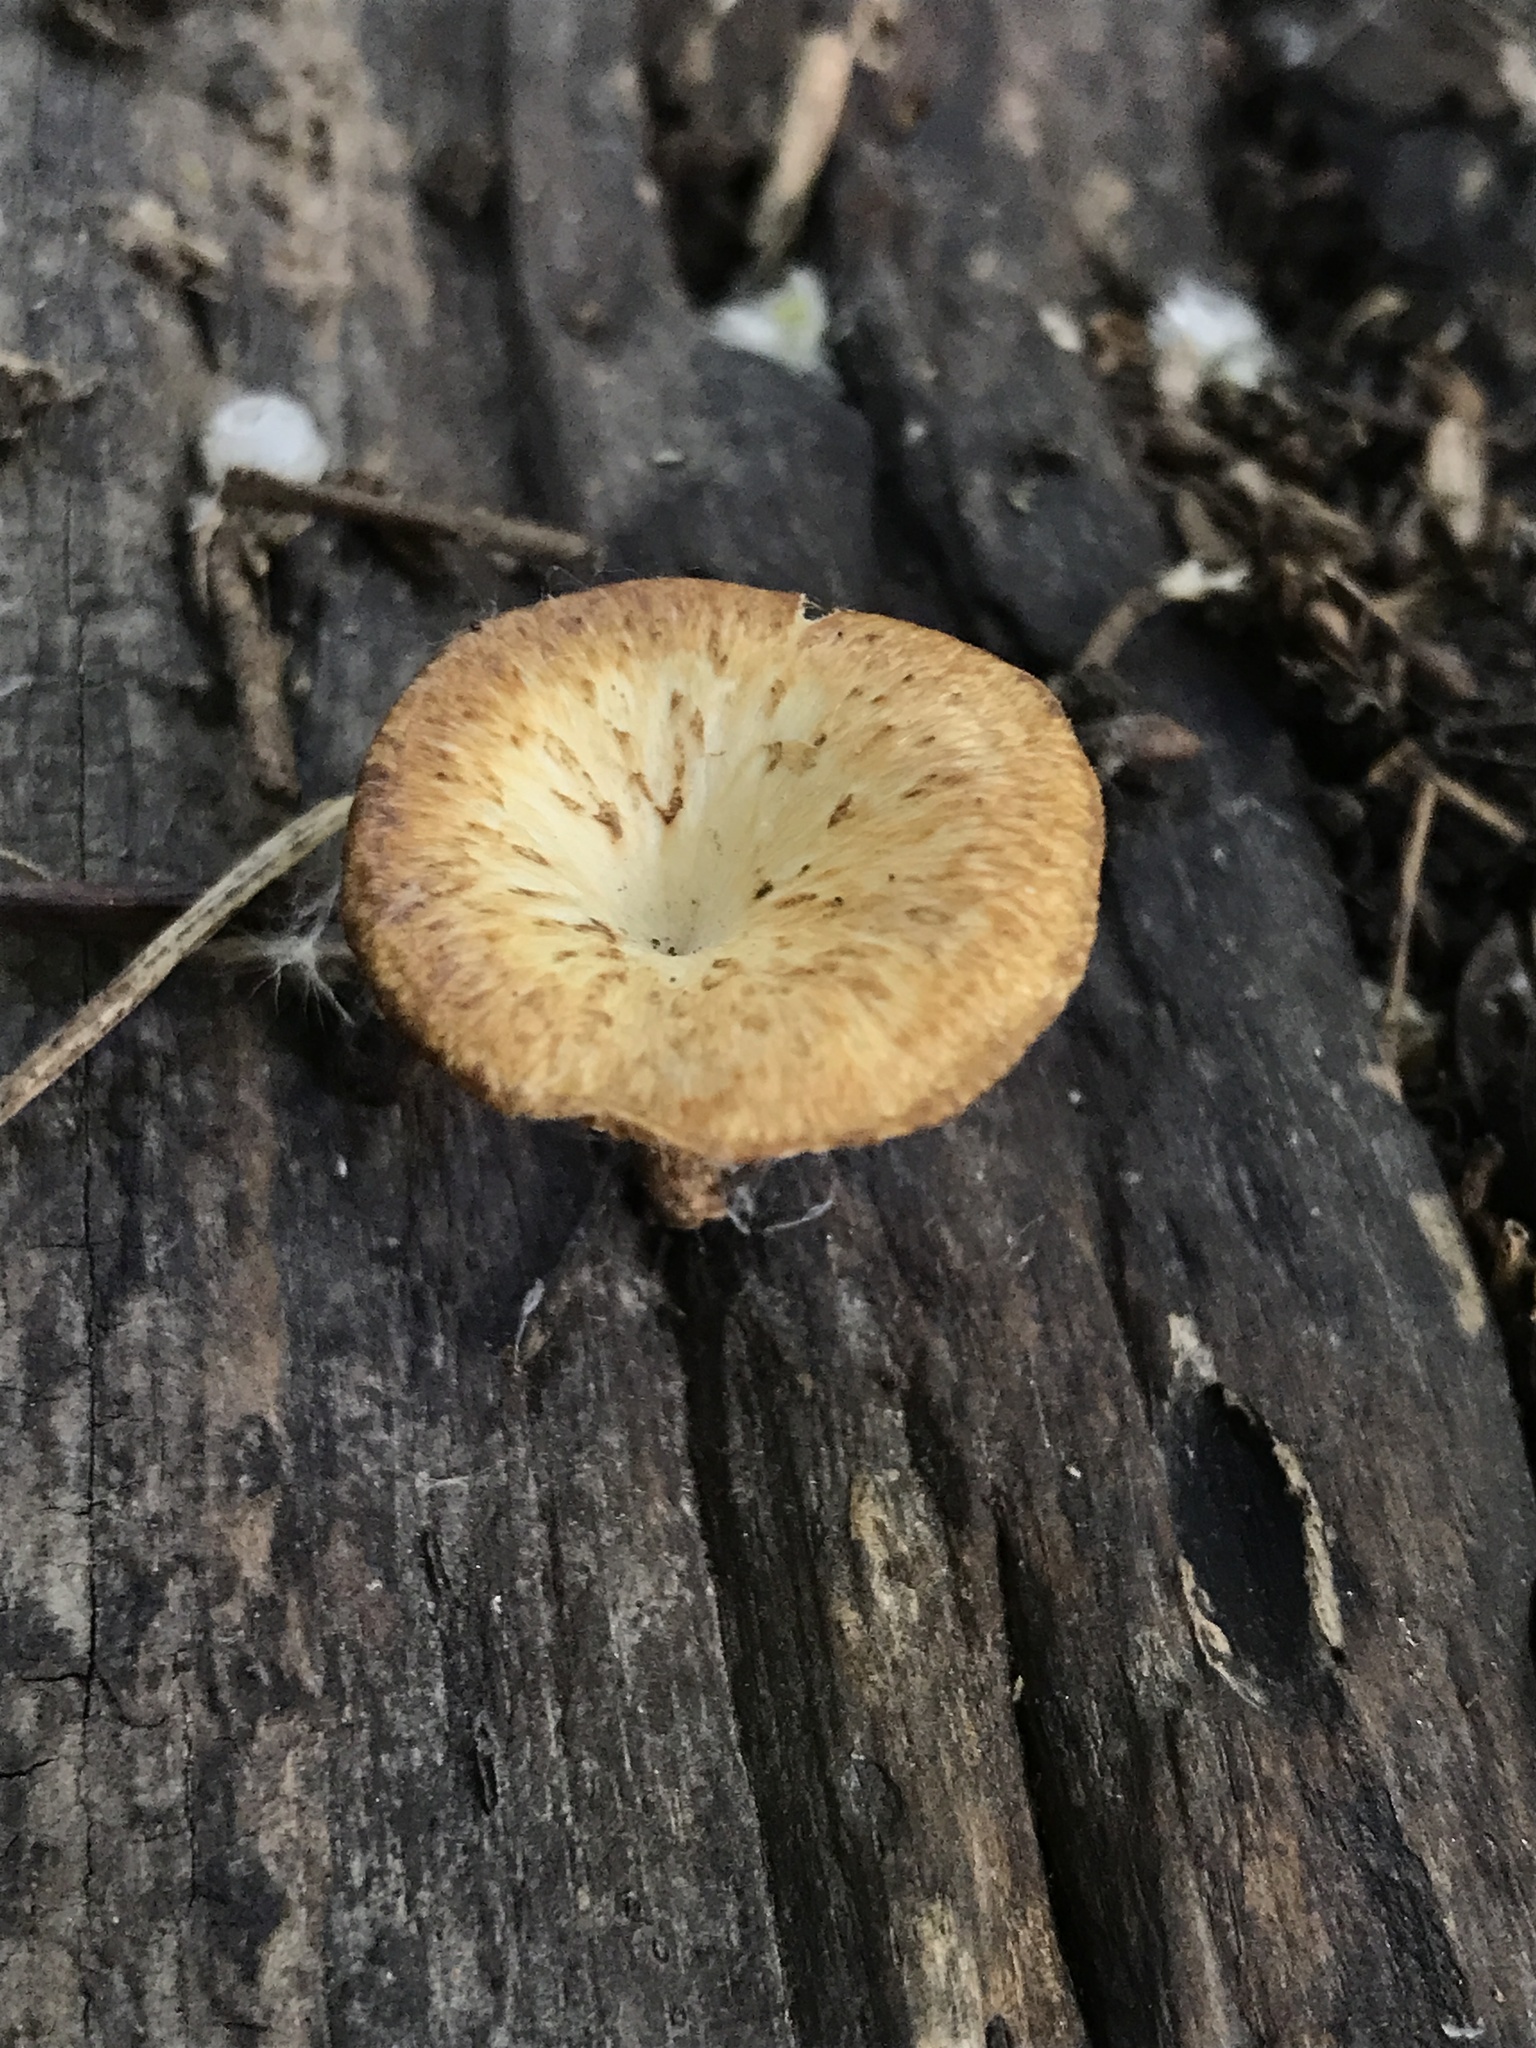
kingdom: Fungi
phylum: Basidiomycota
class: Agaricomycetes
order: Polyporales
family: Polyporaceae
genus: Lentinus
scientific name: Lentinus arcularius
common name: Spring polypore
